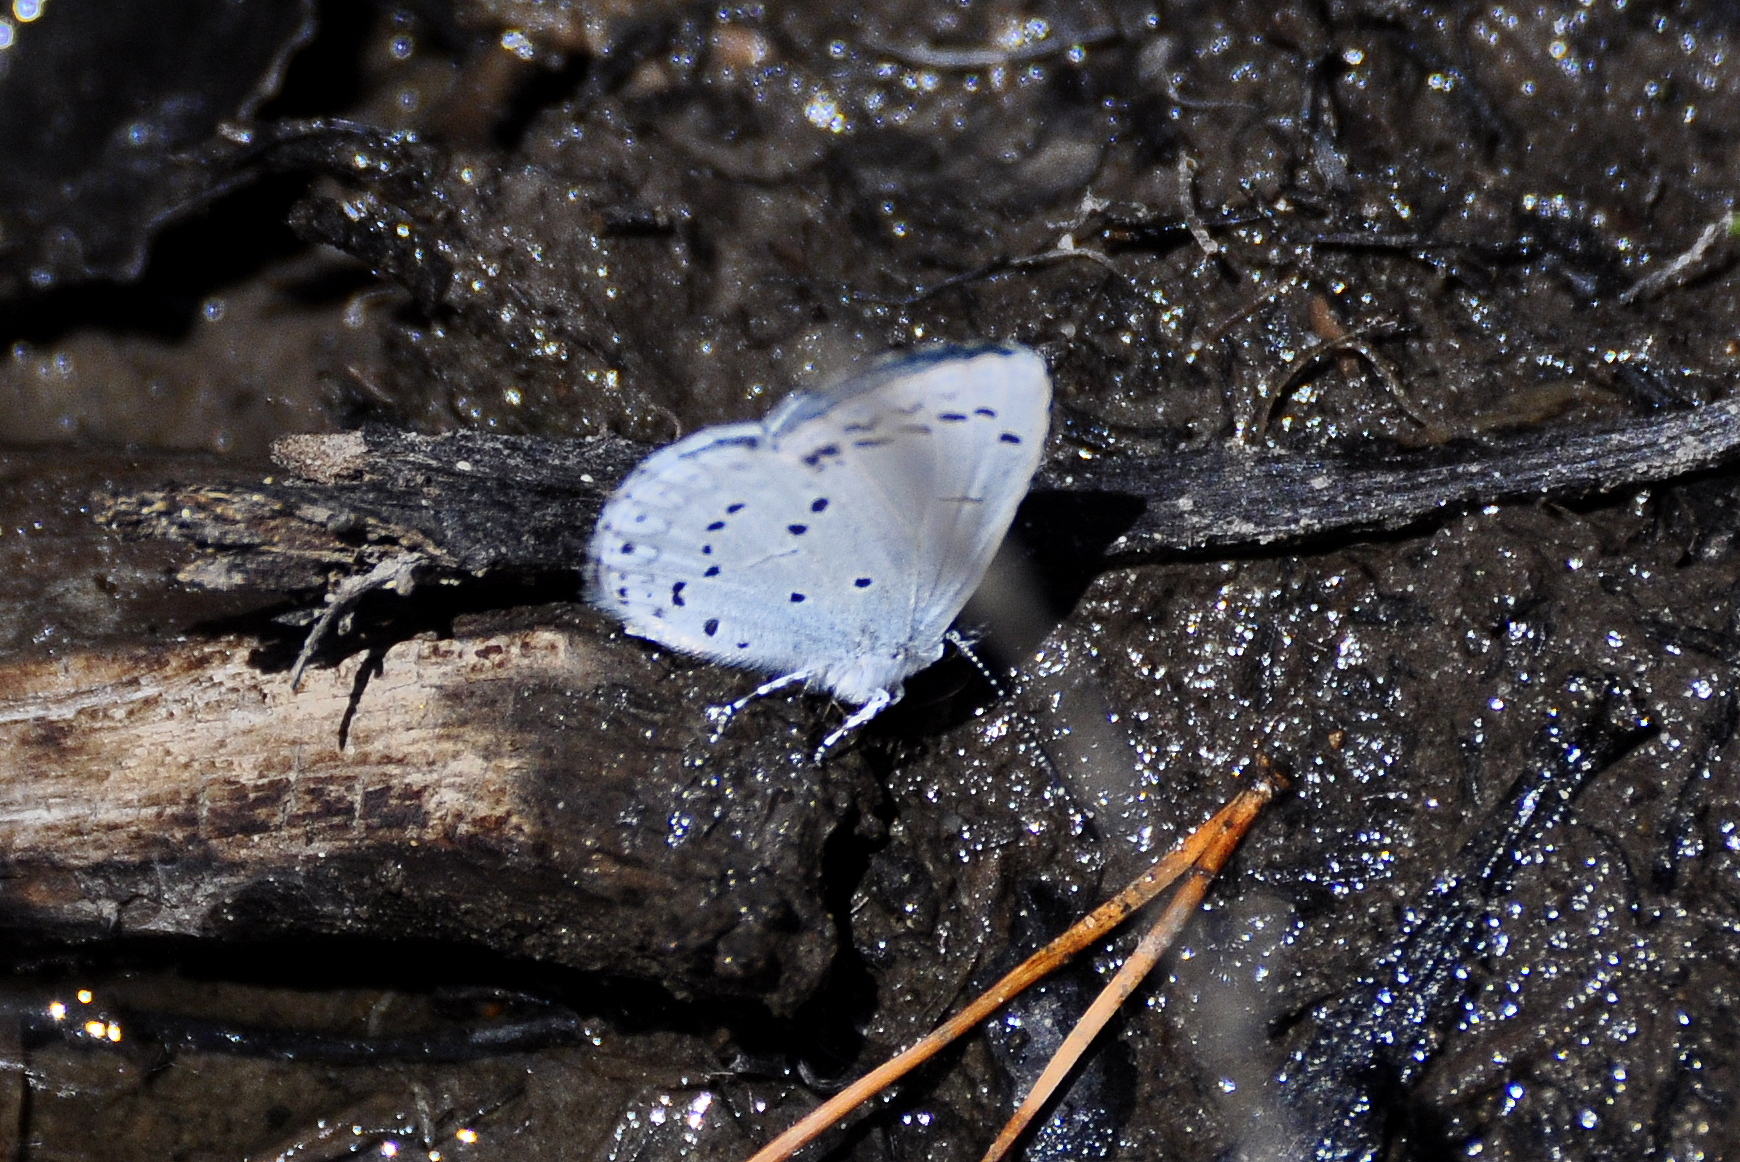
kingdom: Animalia
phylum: Arthropoda
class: Insecta
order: Lepidoptera
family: Lycaenidae
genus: Celastrina
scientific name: Celastrina argiolus
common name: Holly blue
